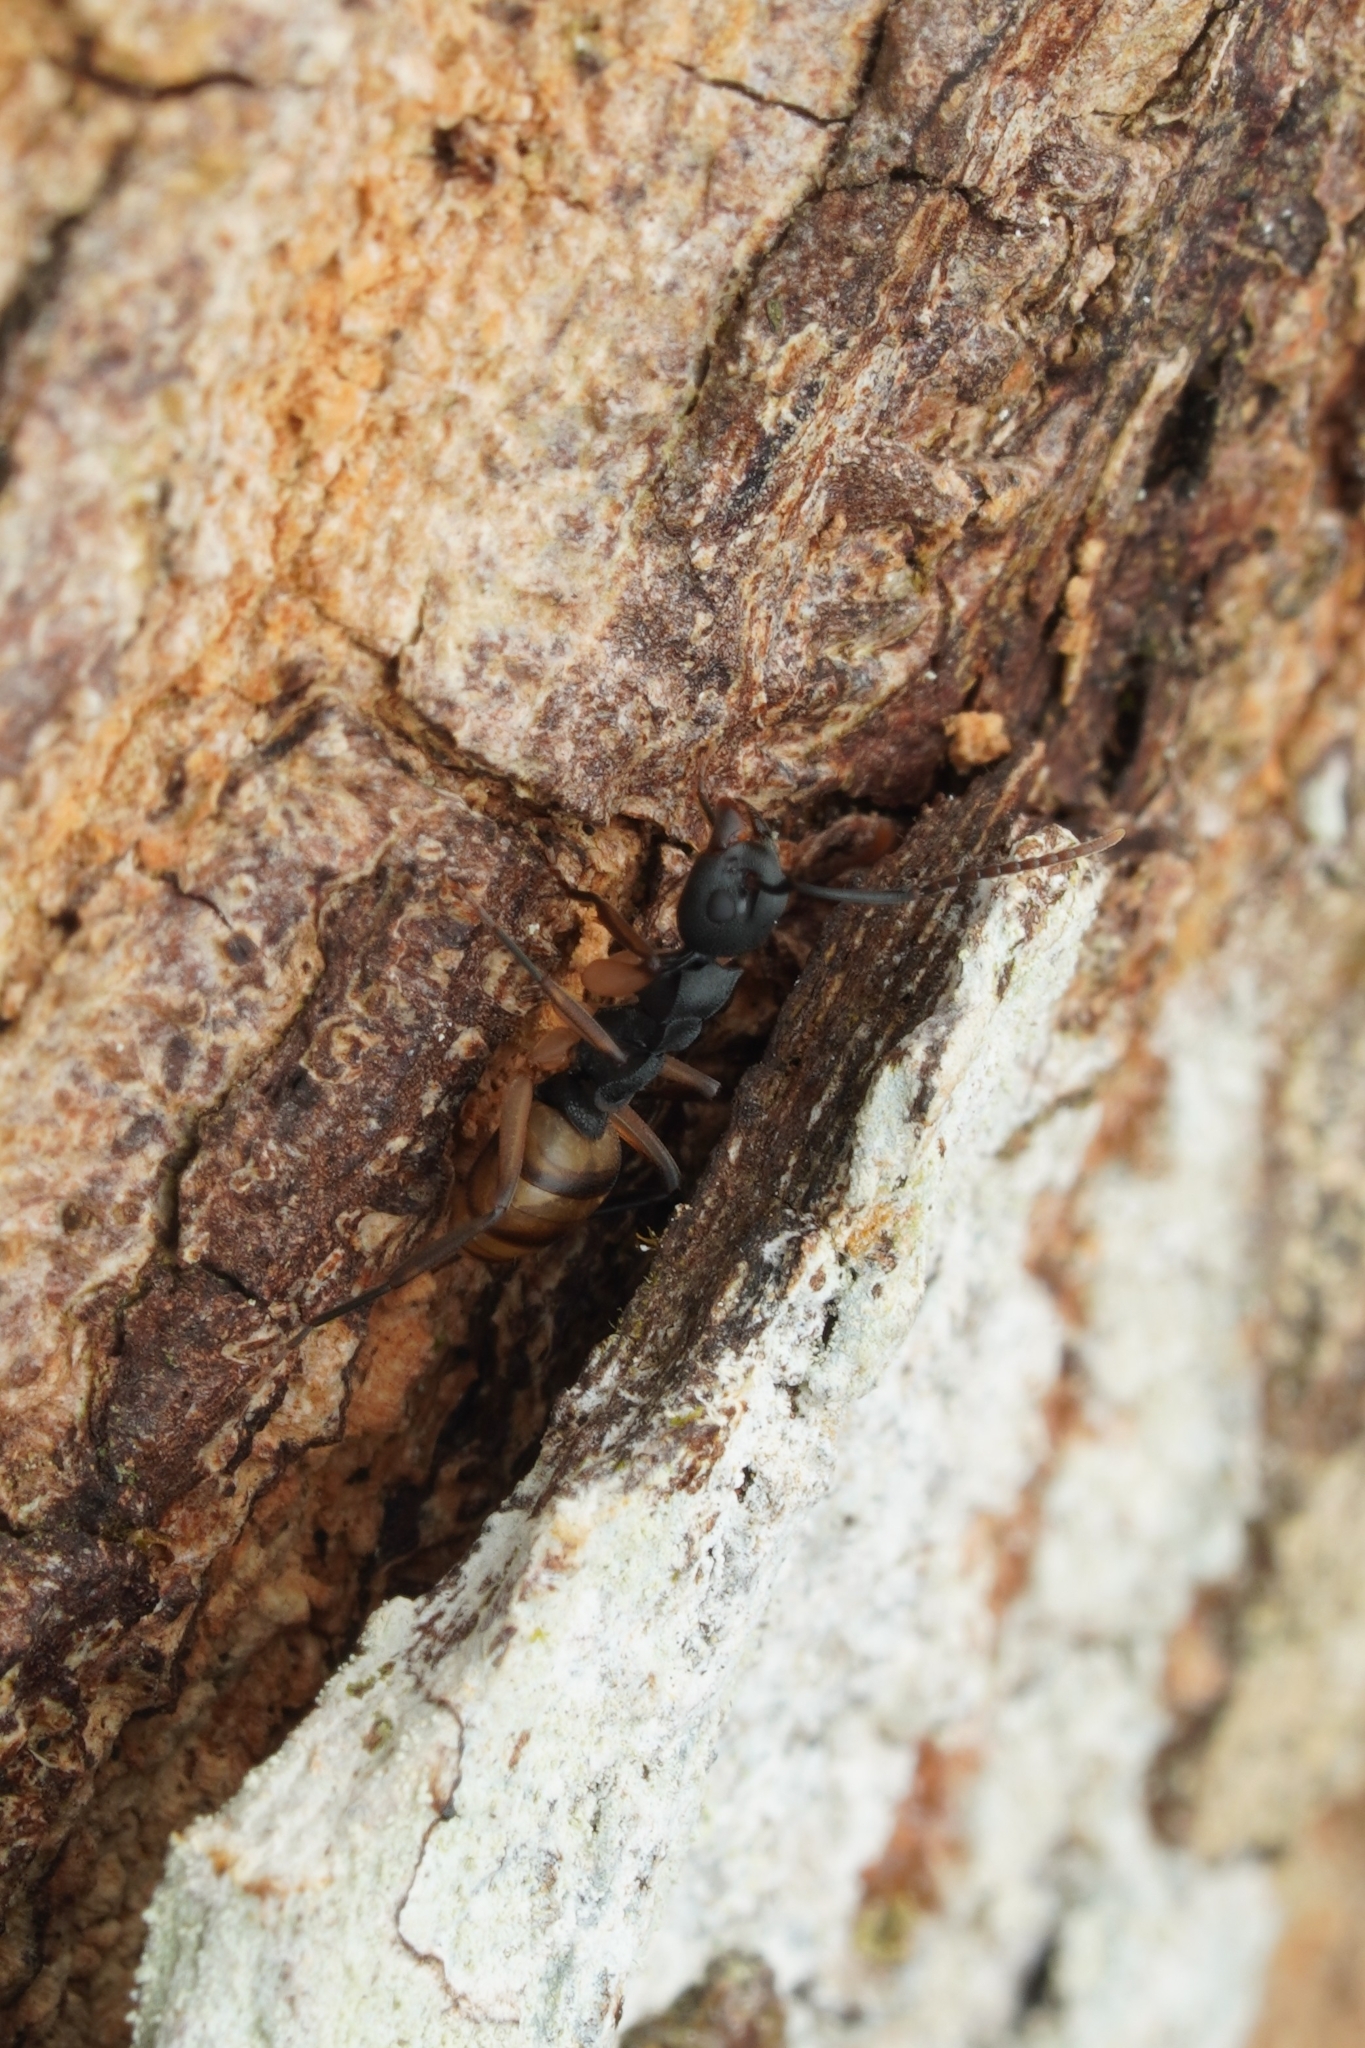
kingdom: Animalia
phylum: Arthropoda
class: Insecta
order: Hymenoptera
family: Formicidae
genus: Dolichoderus
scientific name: Dolichoderus laminatus
